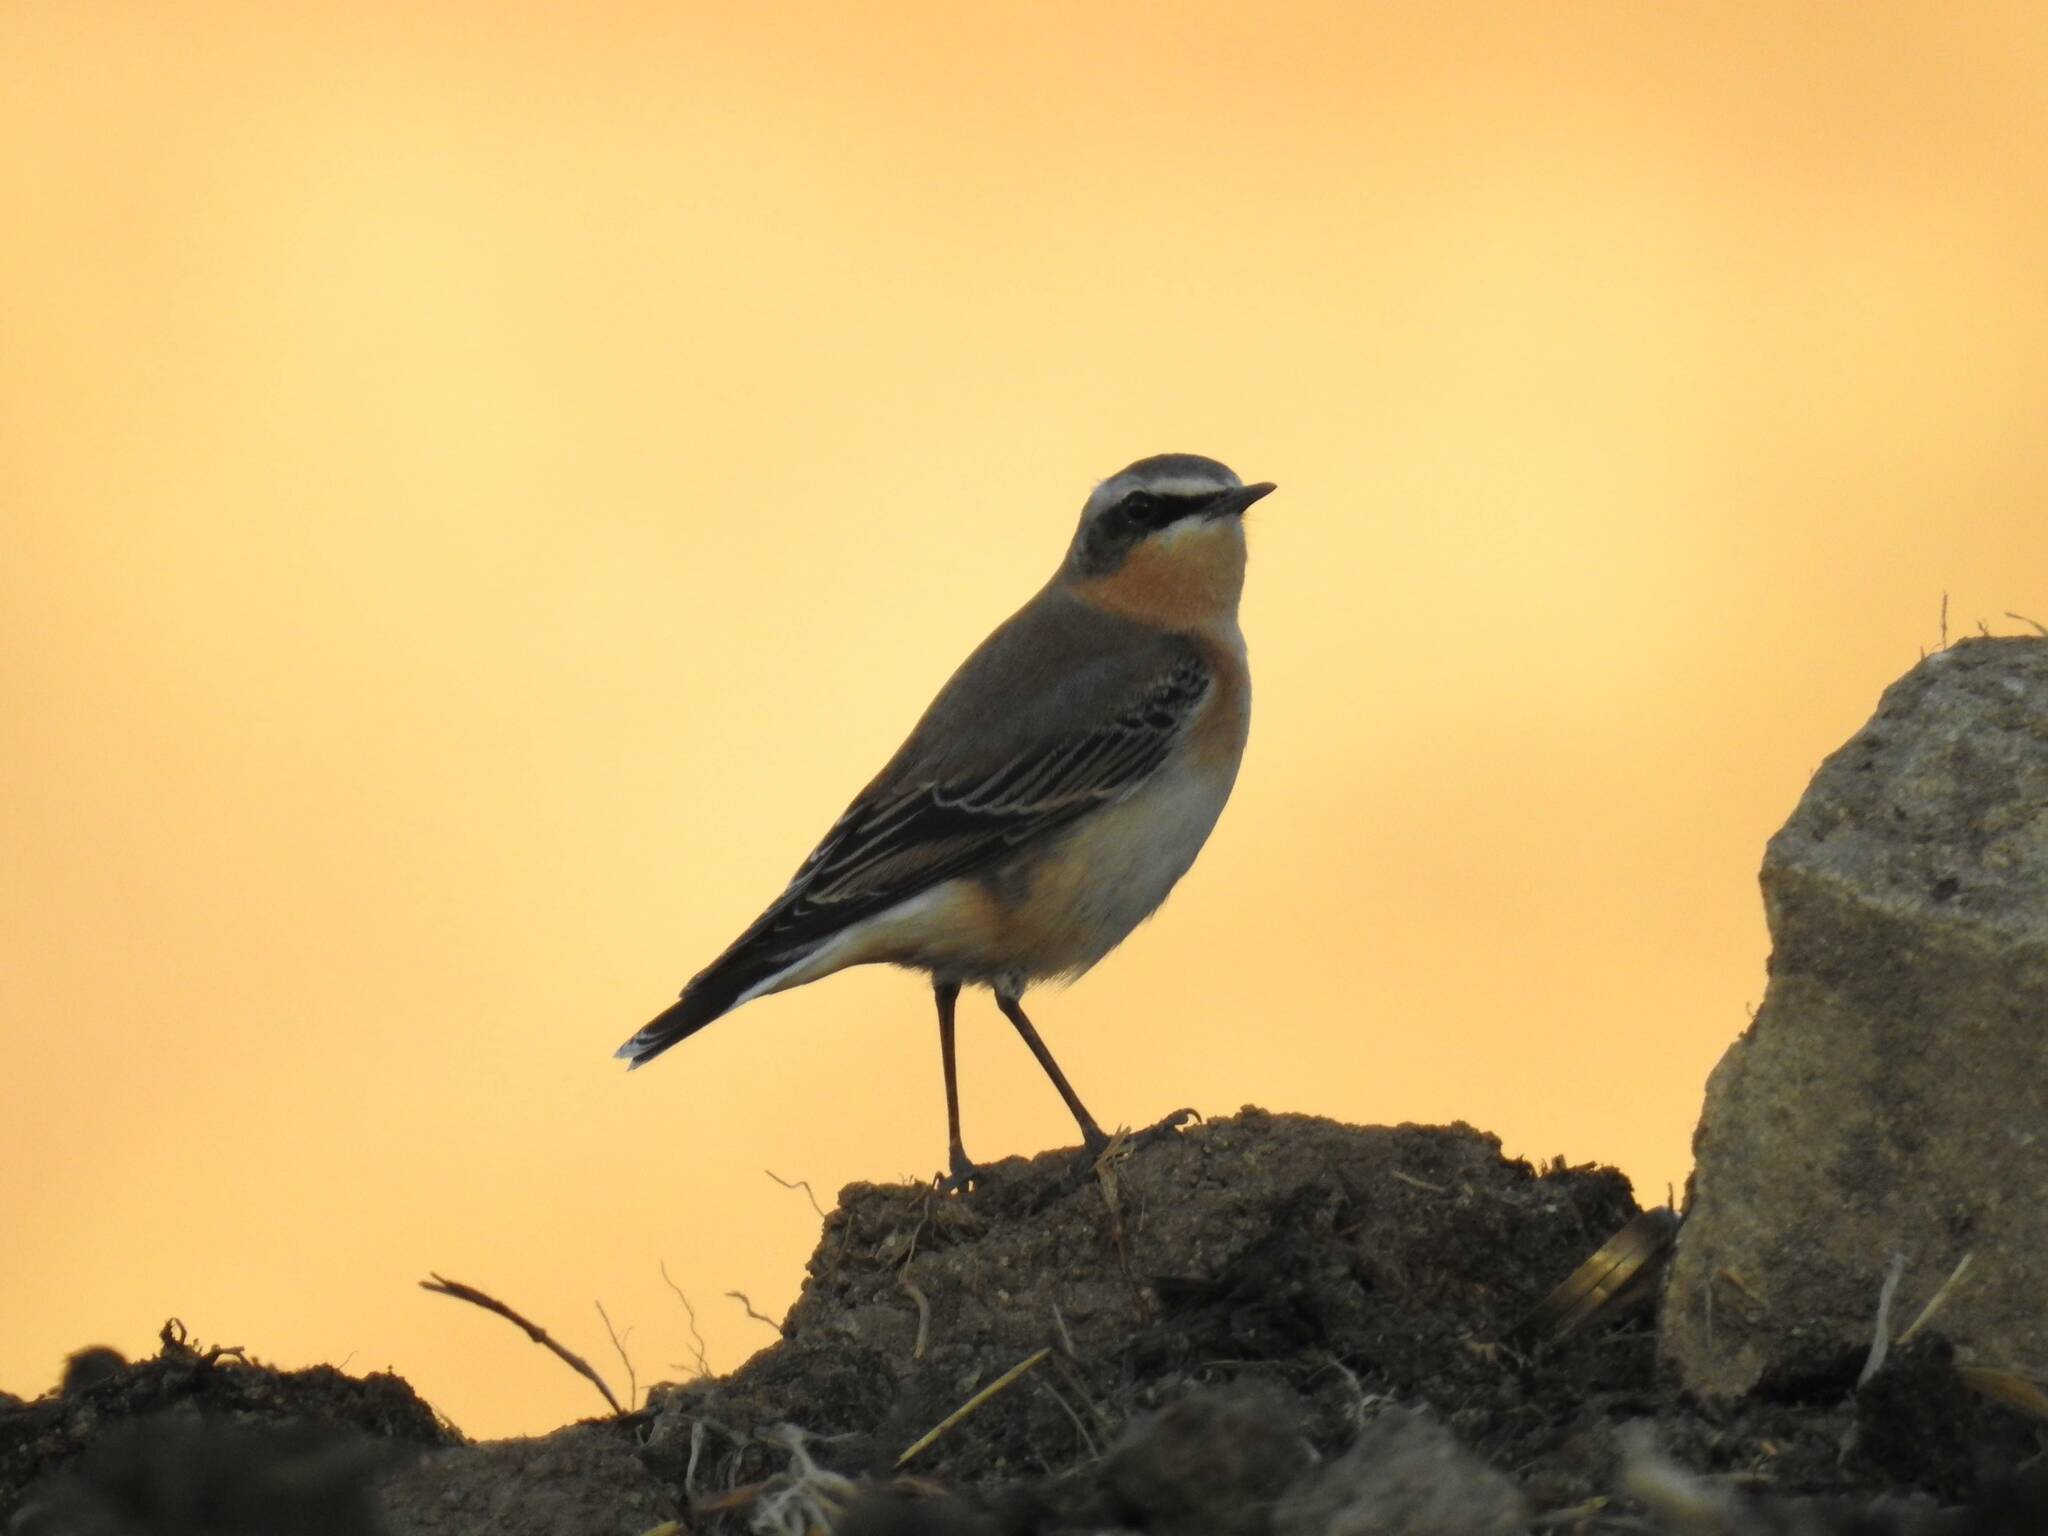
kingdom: Animalia
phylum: Chordata
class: Aves
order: Passeriformes
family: Muscicapidae
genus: Oenanthe
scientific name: Oenanthe oenanthe
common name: Northern wheatear
